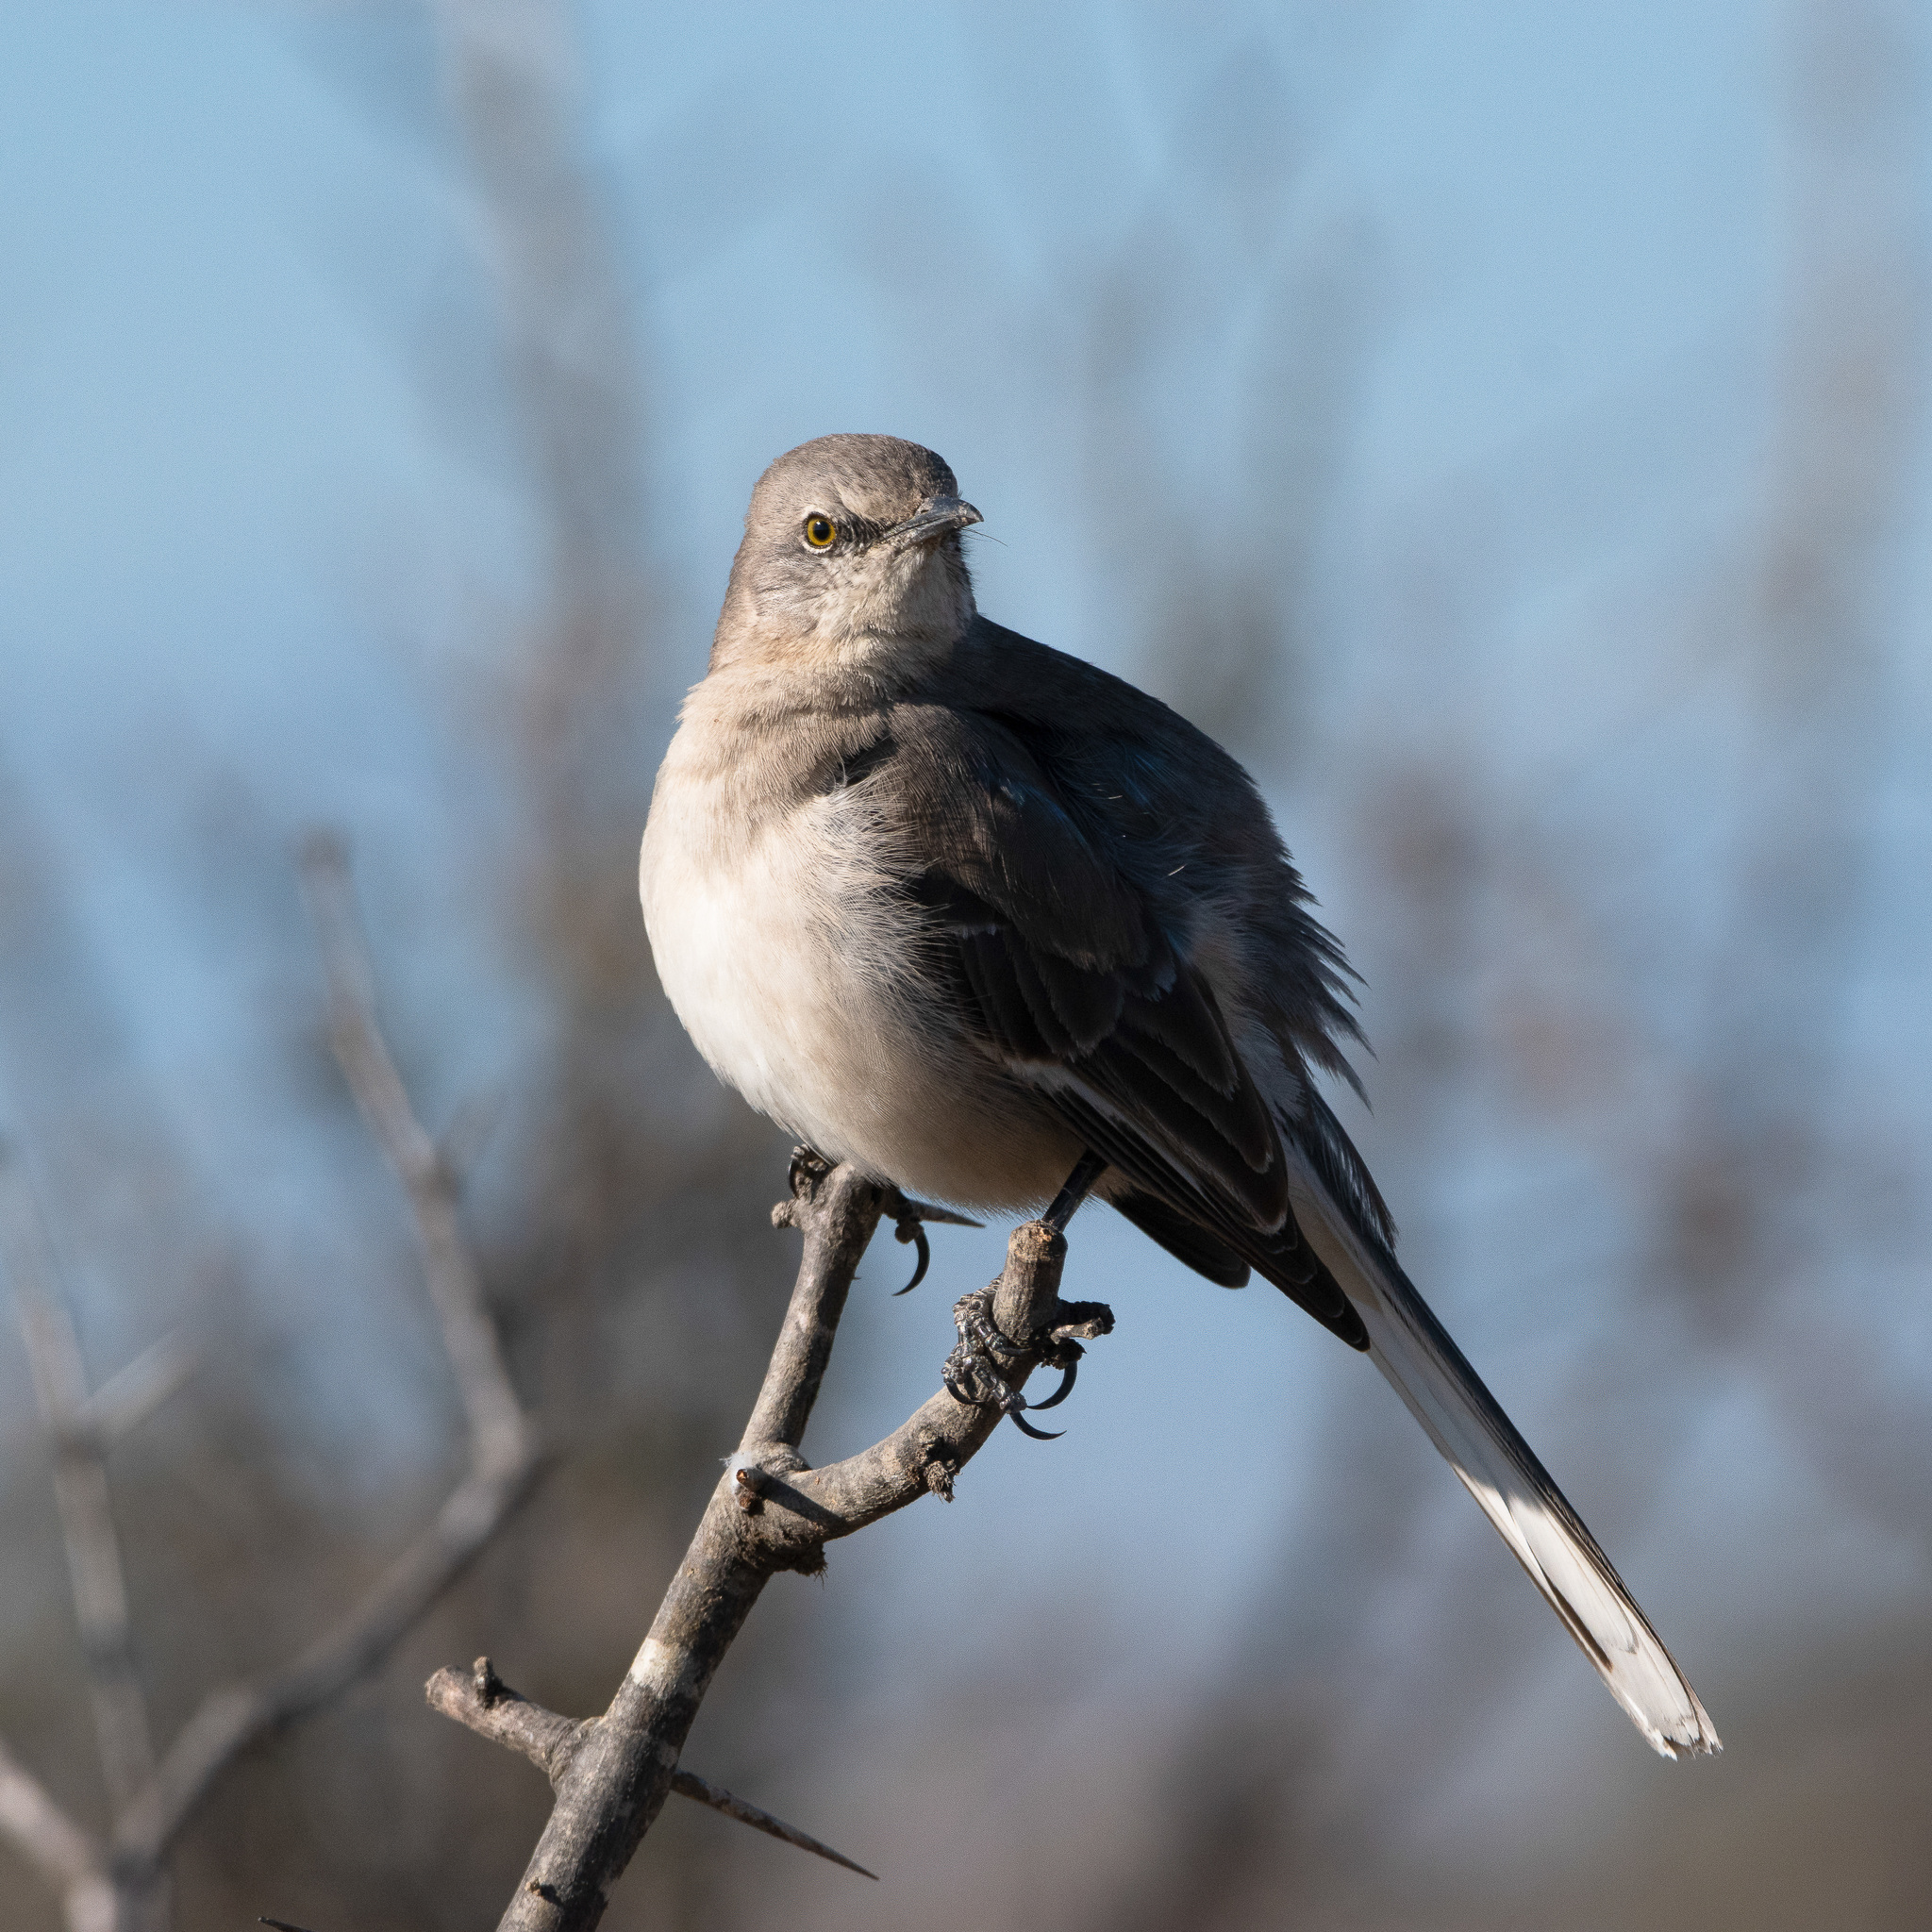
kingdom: Animalia
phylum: Chordata
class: Aves
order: Passeriformes
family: Mimidae
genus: Mimus
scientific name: Mimus polyglottos
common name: Northern mockingbird
